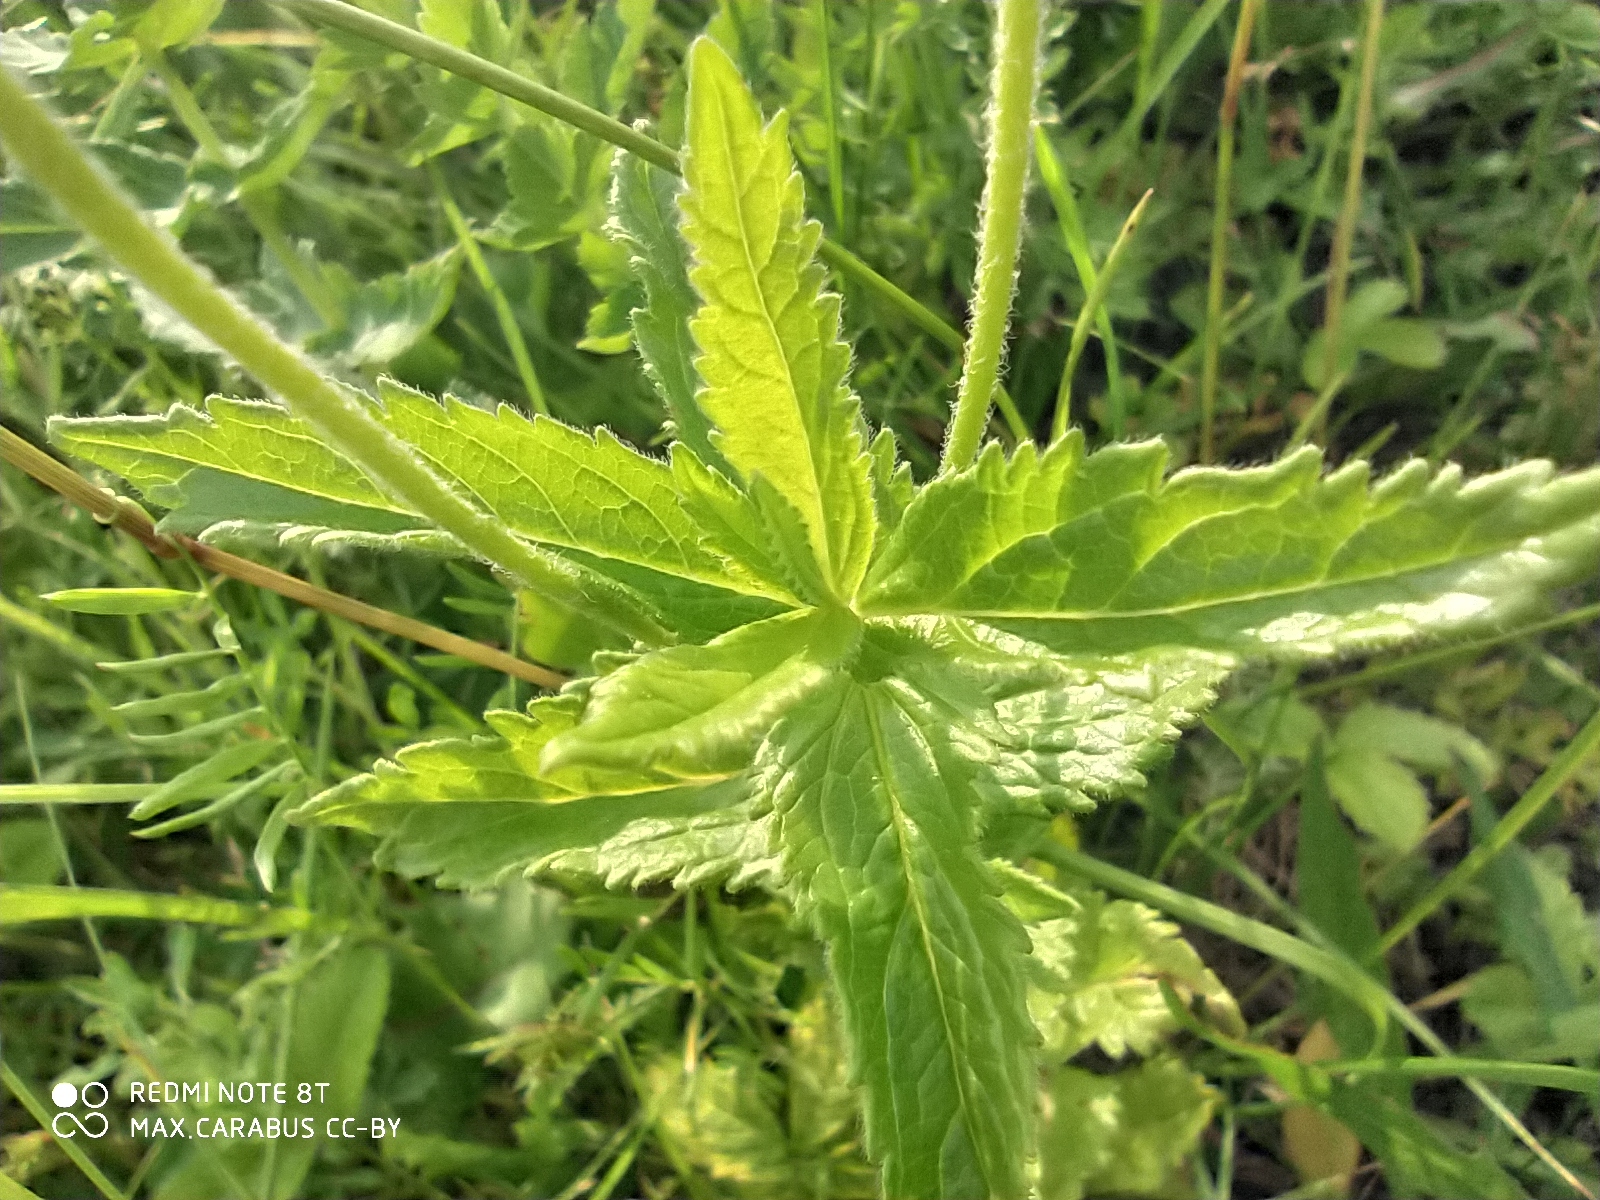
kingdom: Plantae
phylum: Tracheophyta
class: Magnoliopsida
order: Lamiales
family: Plantaginaceae
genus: Veronica
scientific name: Veronica teucrium
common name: Large speedwell
